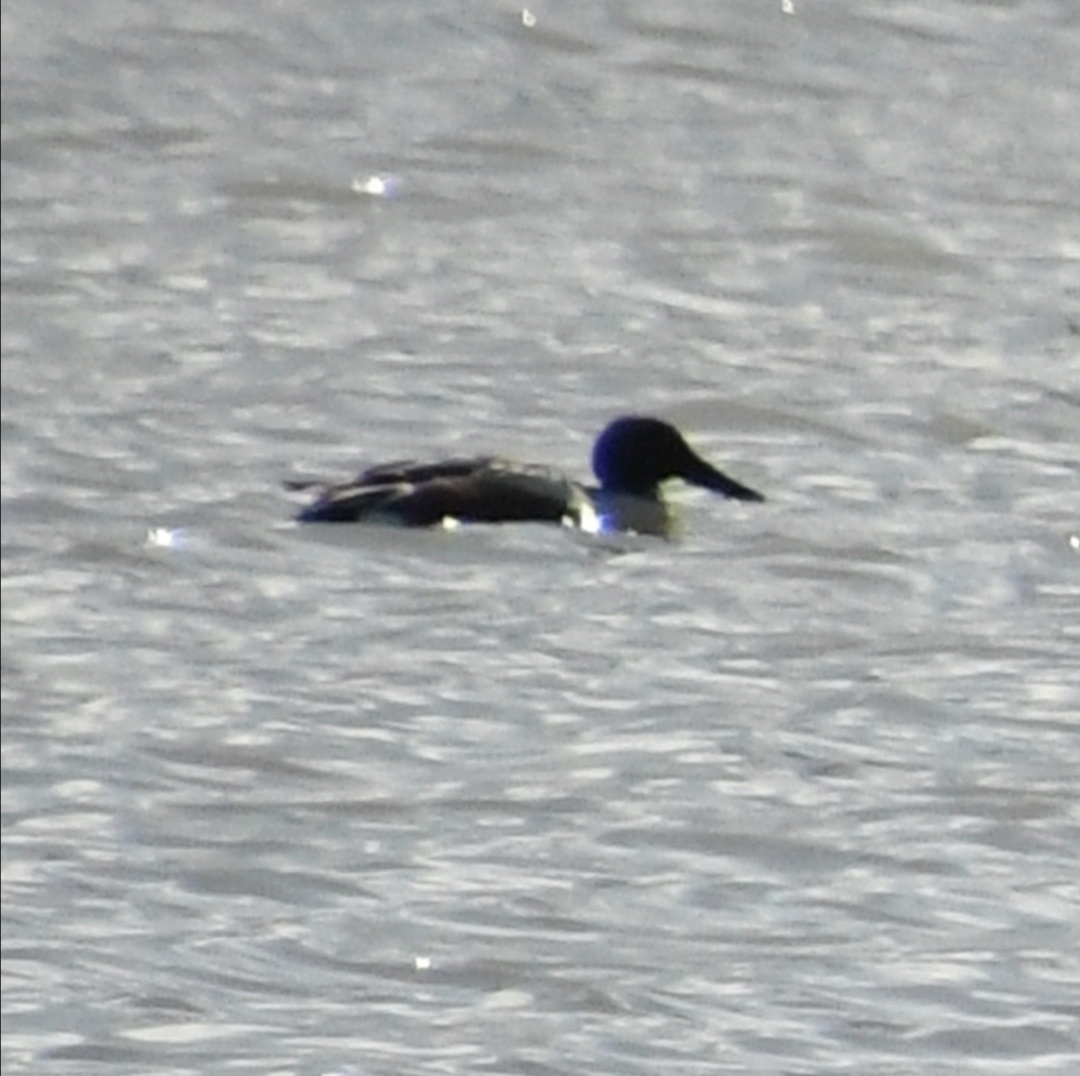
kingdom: Animalia
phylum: Chordata
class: Aves
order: Anseriformes
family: Anatidae
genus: Spatula
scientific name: Spatula clypeata
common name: Northern shoveler
